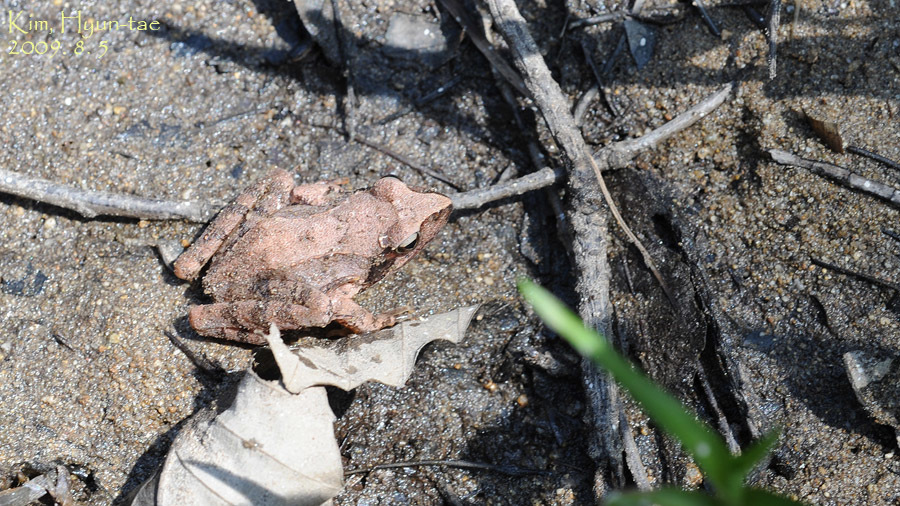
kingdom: Animalia
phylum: Chordata
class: Amphibia
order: Anura
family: Ranidae
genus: Rana
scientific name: Rana uenoi
